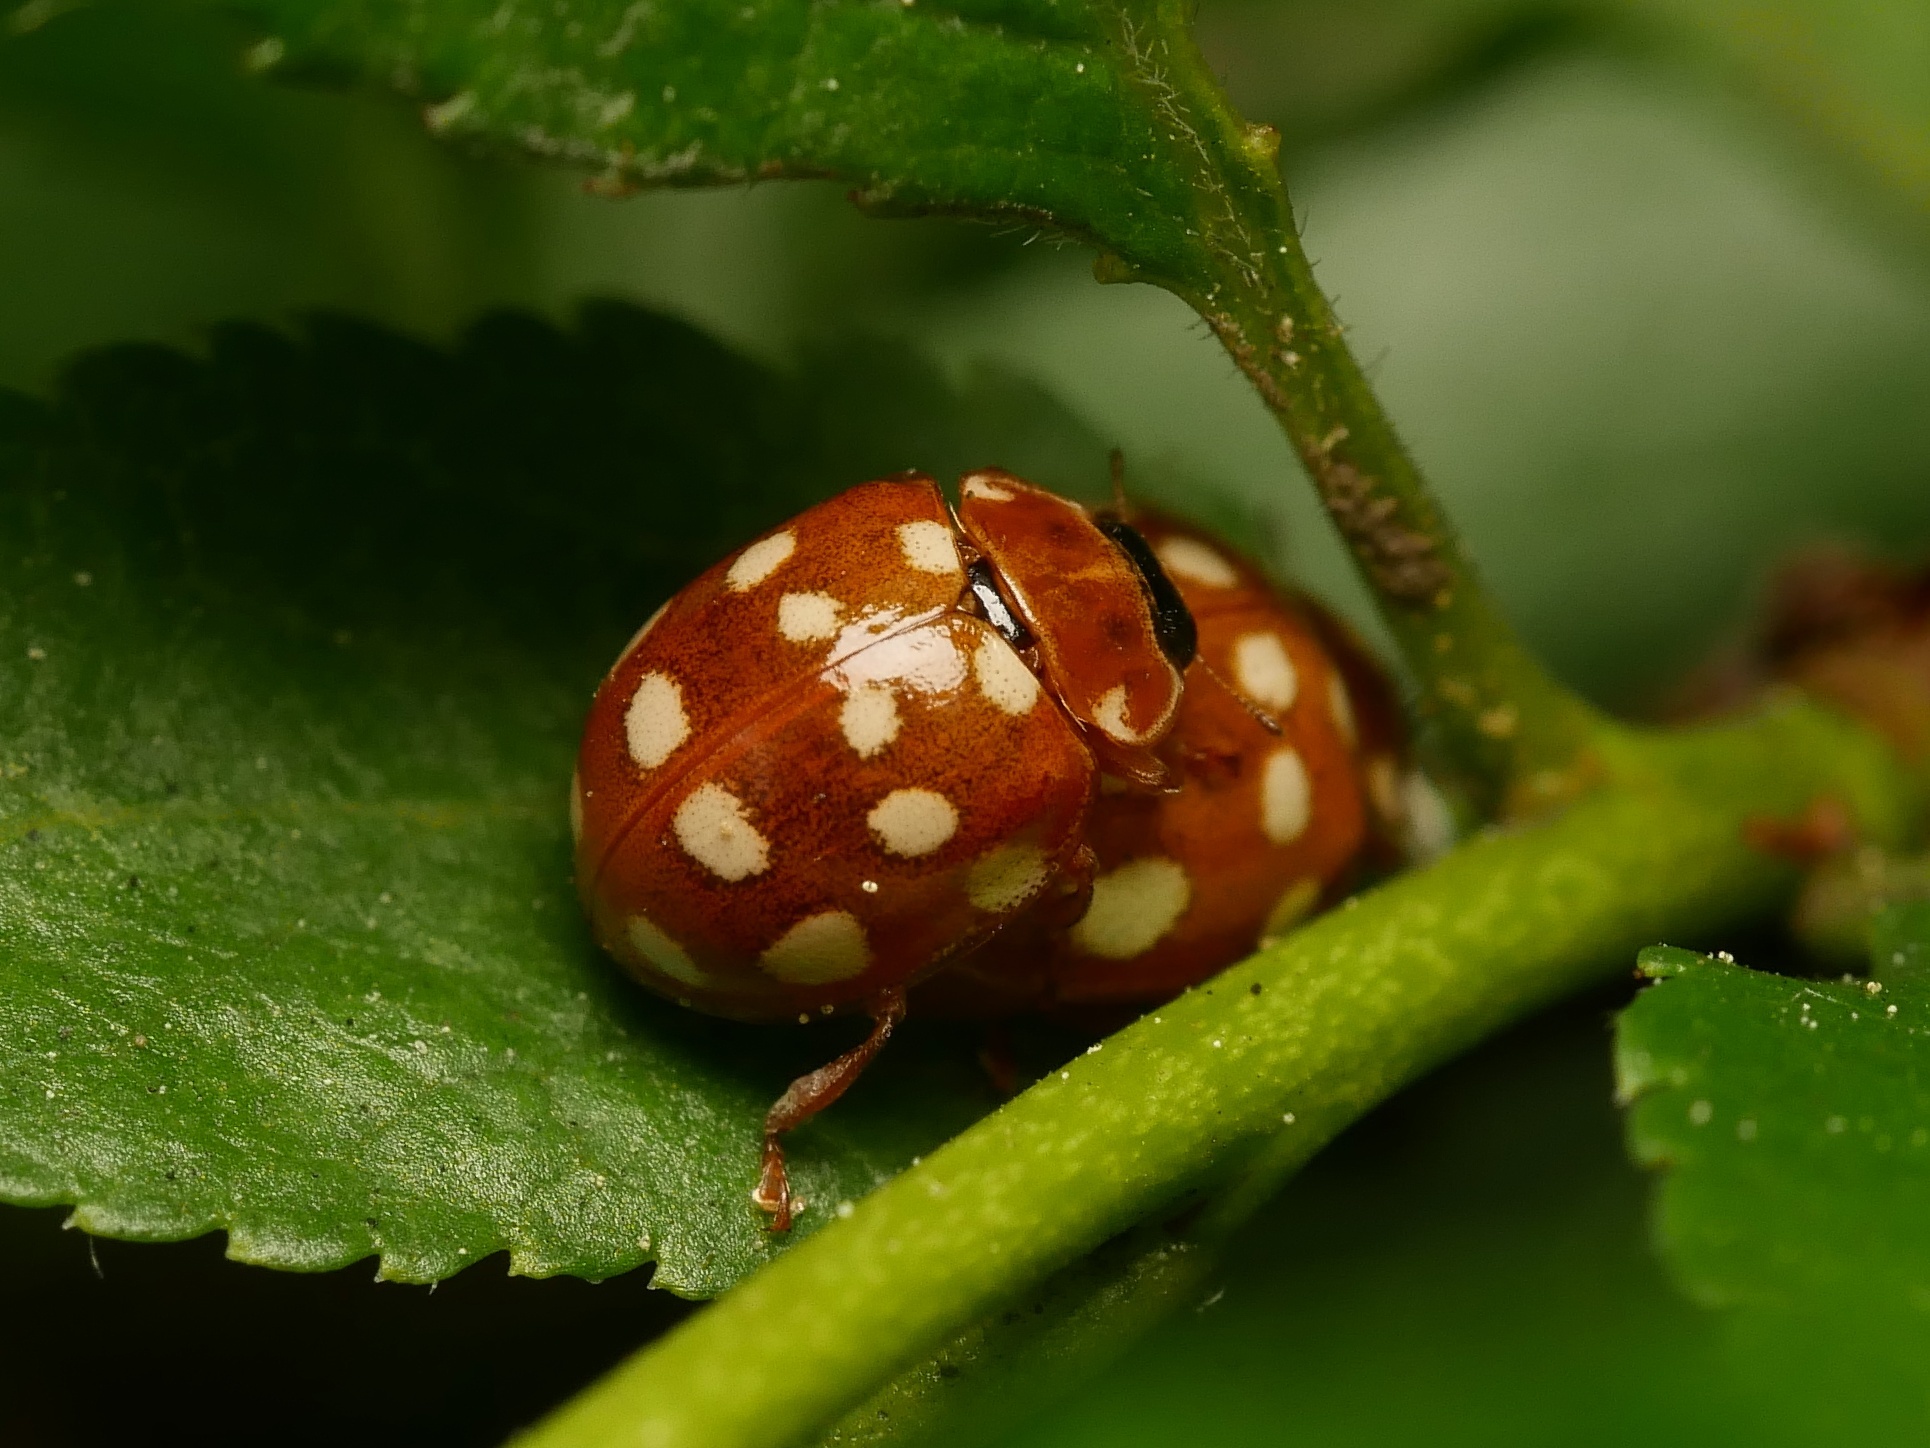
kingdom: Animalia
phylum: Arthropoda
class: Insecta
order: Coleoptera
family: Coccinellidae
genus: Calvia
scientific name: Calvia quatuordecimguttata
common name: Cream-spot ladybird
